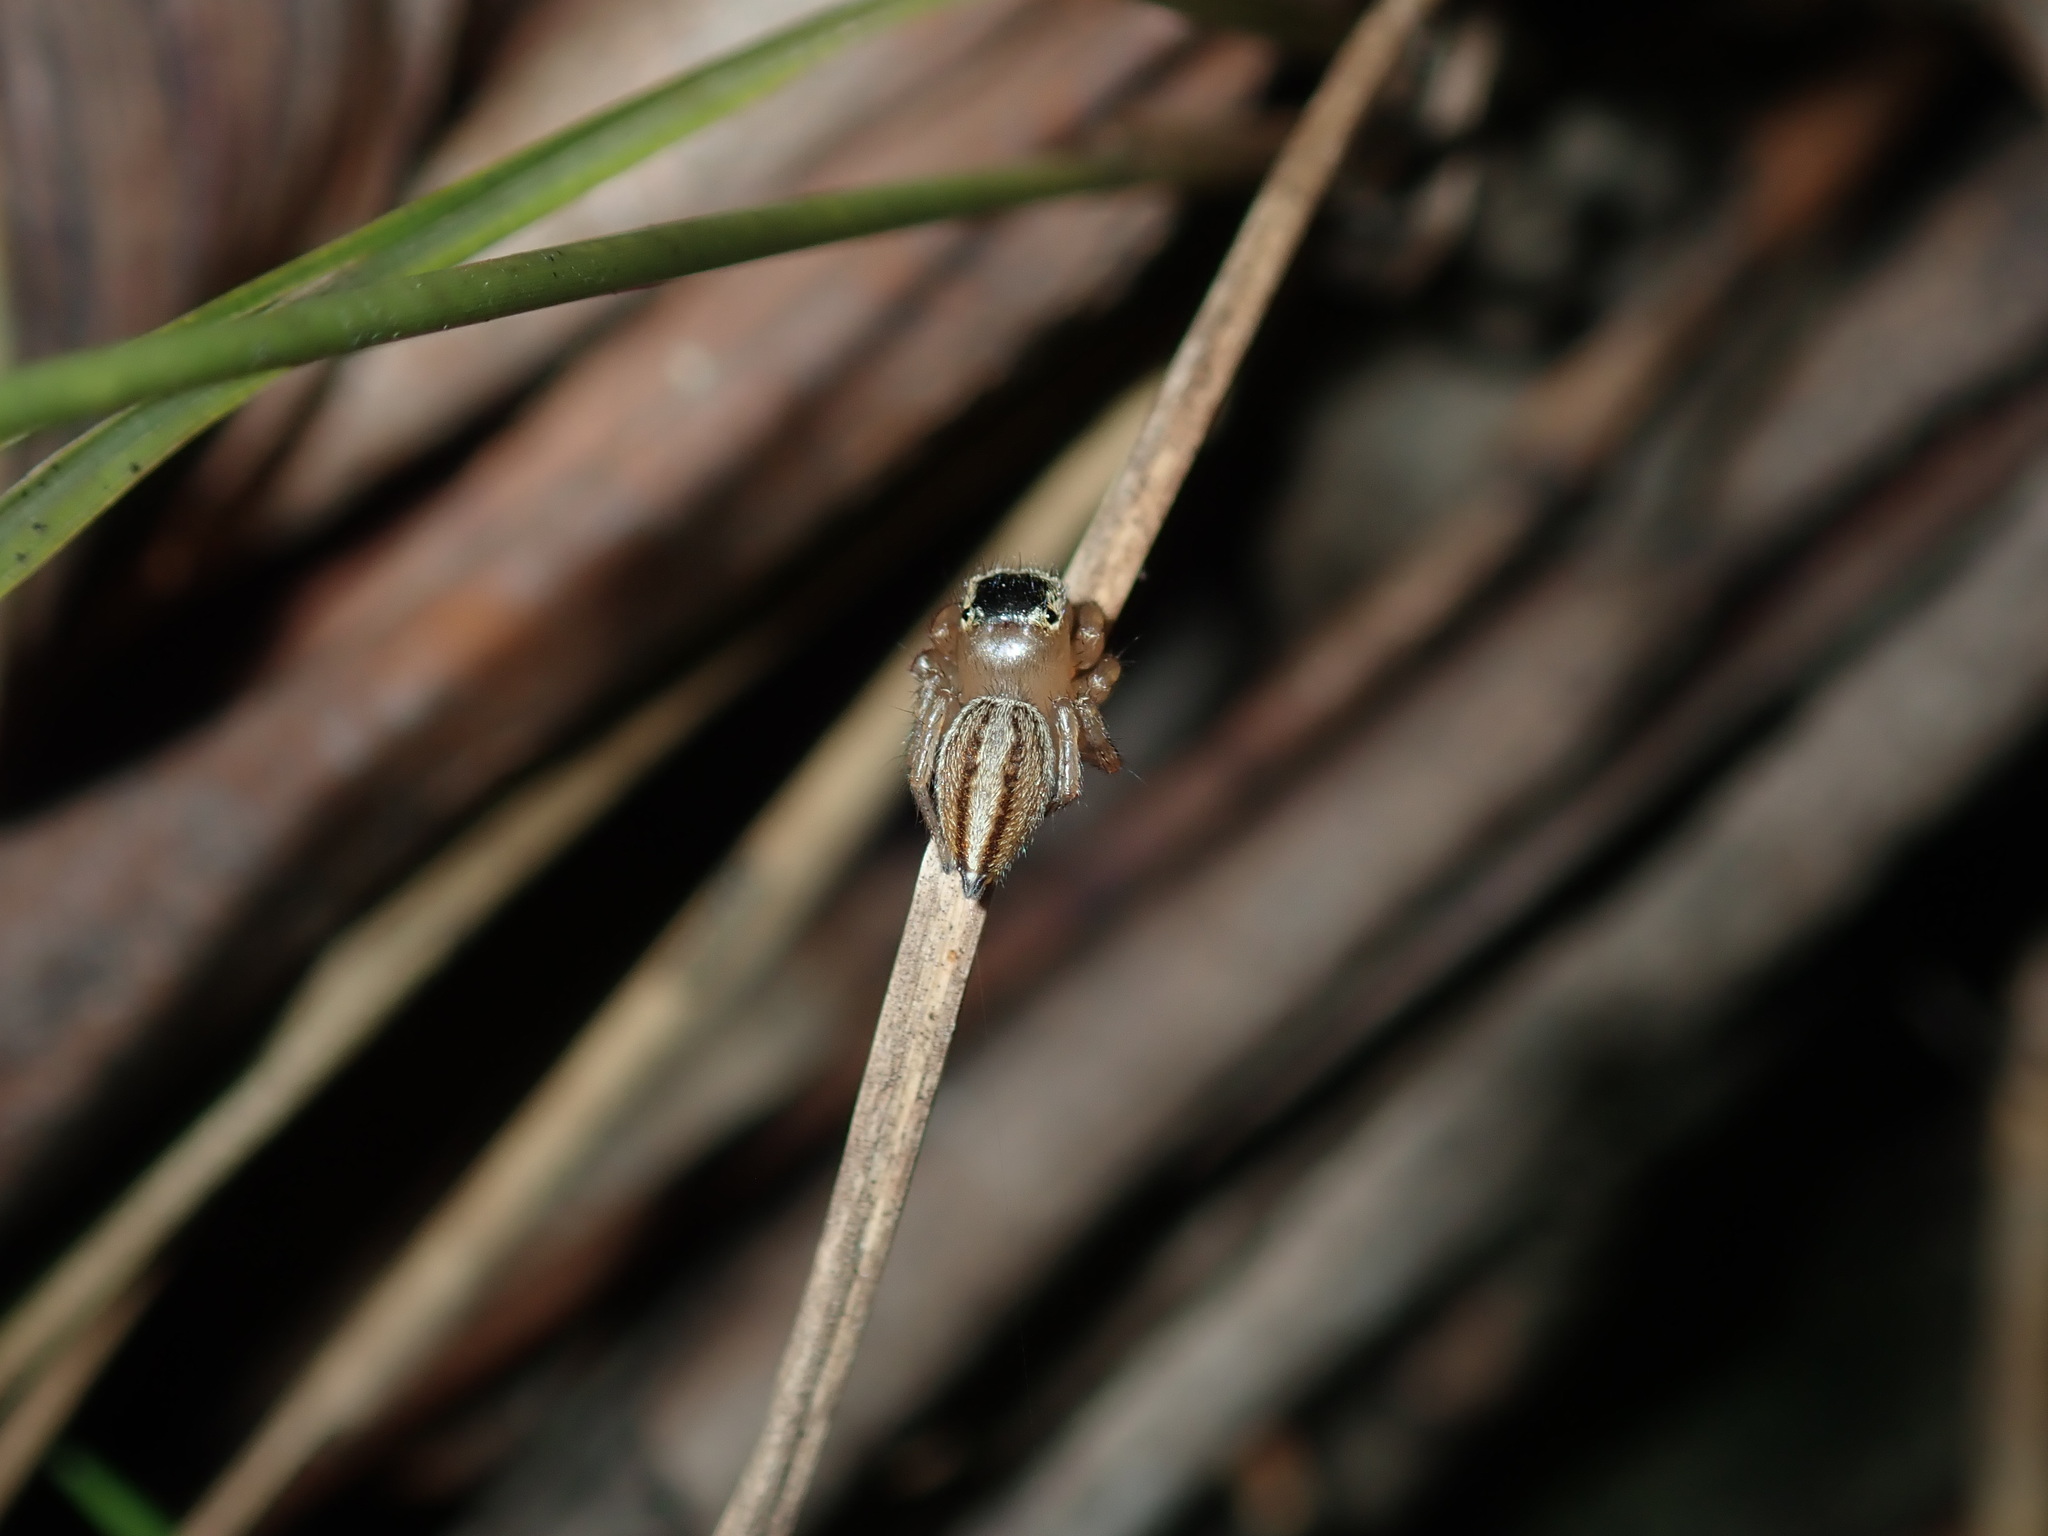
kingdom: Animalia
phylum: Arthropoda
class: Arachnida
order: Araneae
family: Salticidae
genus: Maratus
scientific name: Maratus scutulatus
